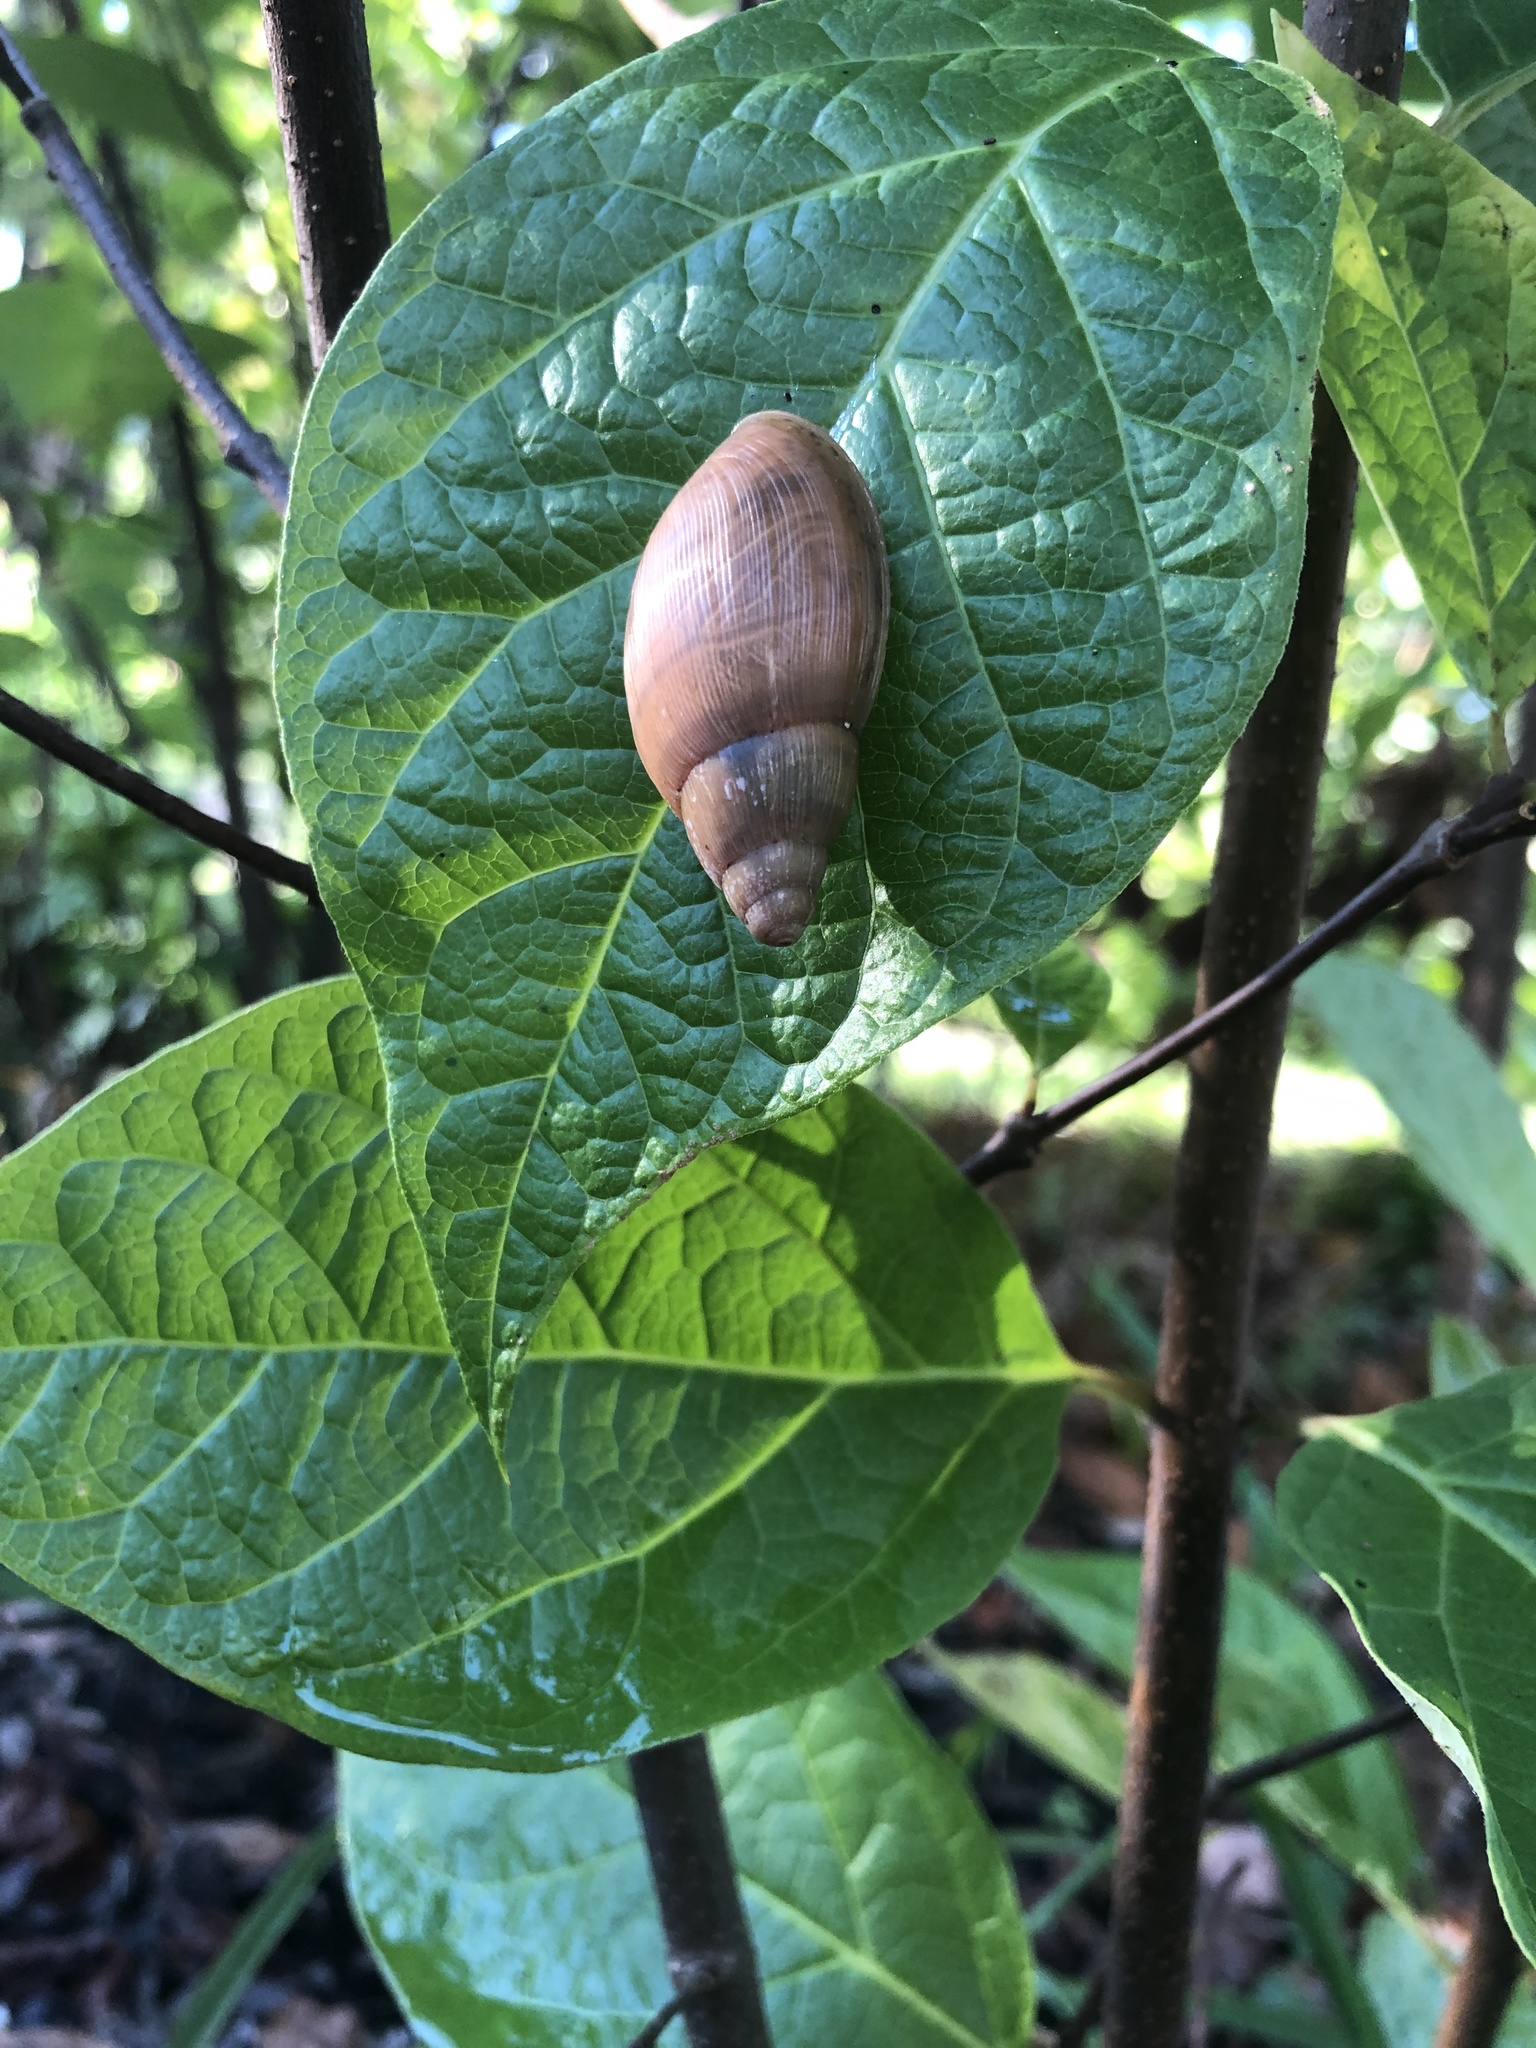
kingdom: Animalia
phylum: Mollusca
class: Gastropoda
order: Stylommatophora
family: Spiraxidae
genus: Euglandina
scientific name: Euglandina rosea
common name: Rosy wolfsnail
